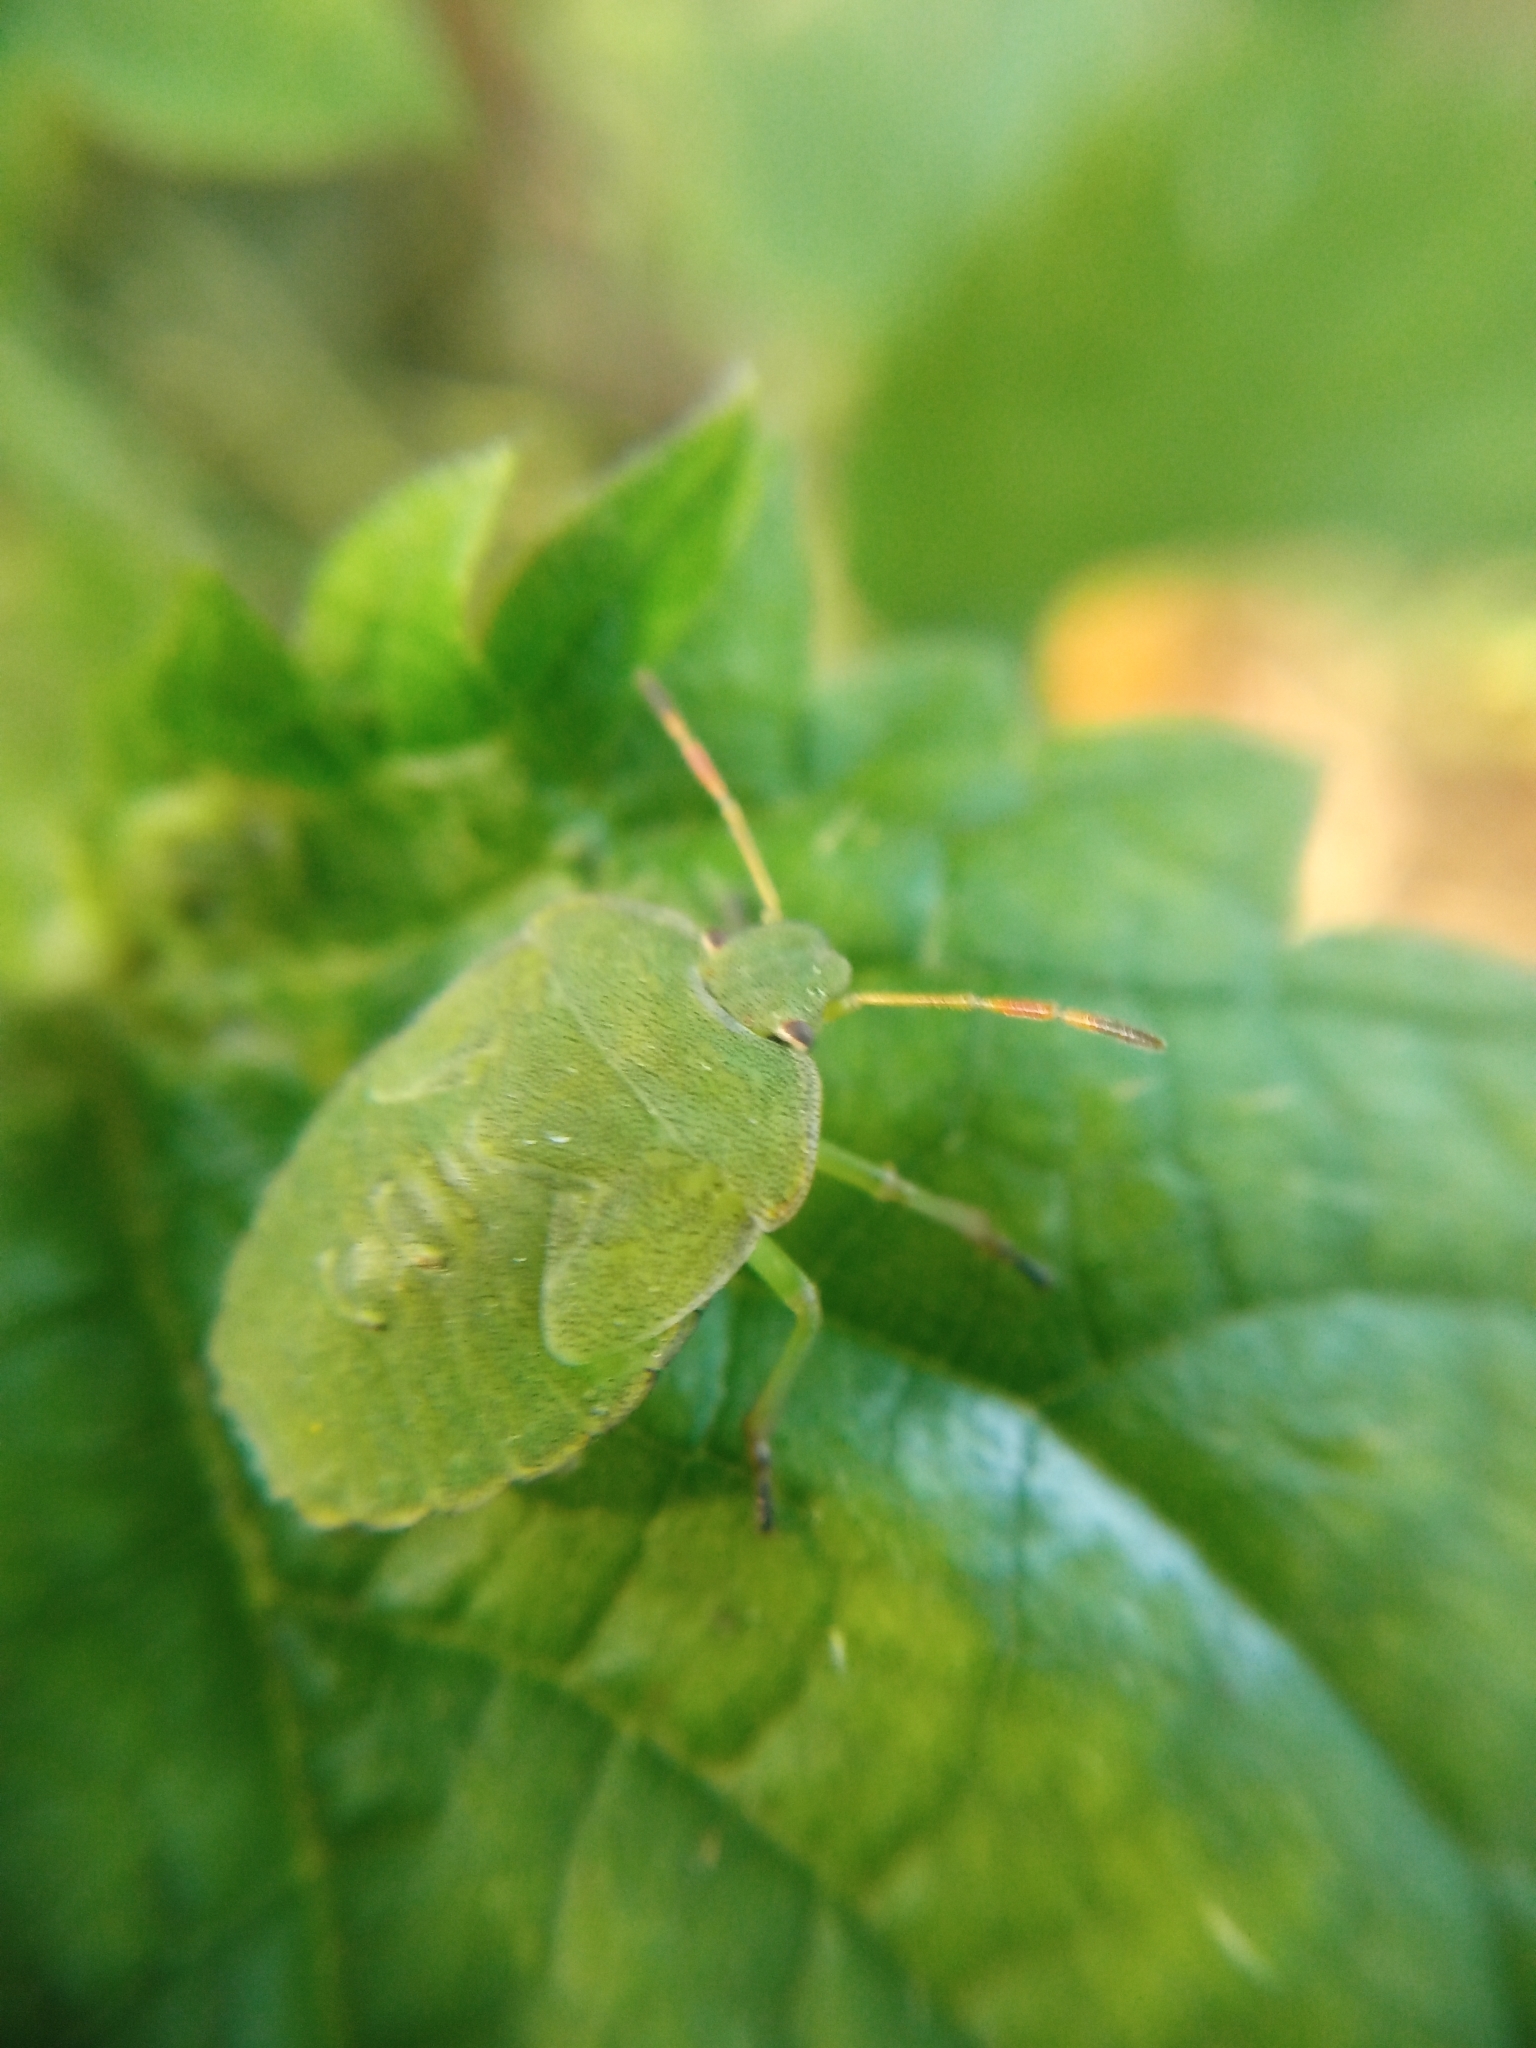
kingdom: Animalia
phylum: Arthropoda
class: Insecta
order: Hemiptera
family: Pentatomidae
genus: Palomena
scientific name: Palomena prasina
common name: Green shieldbug
